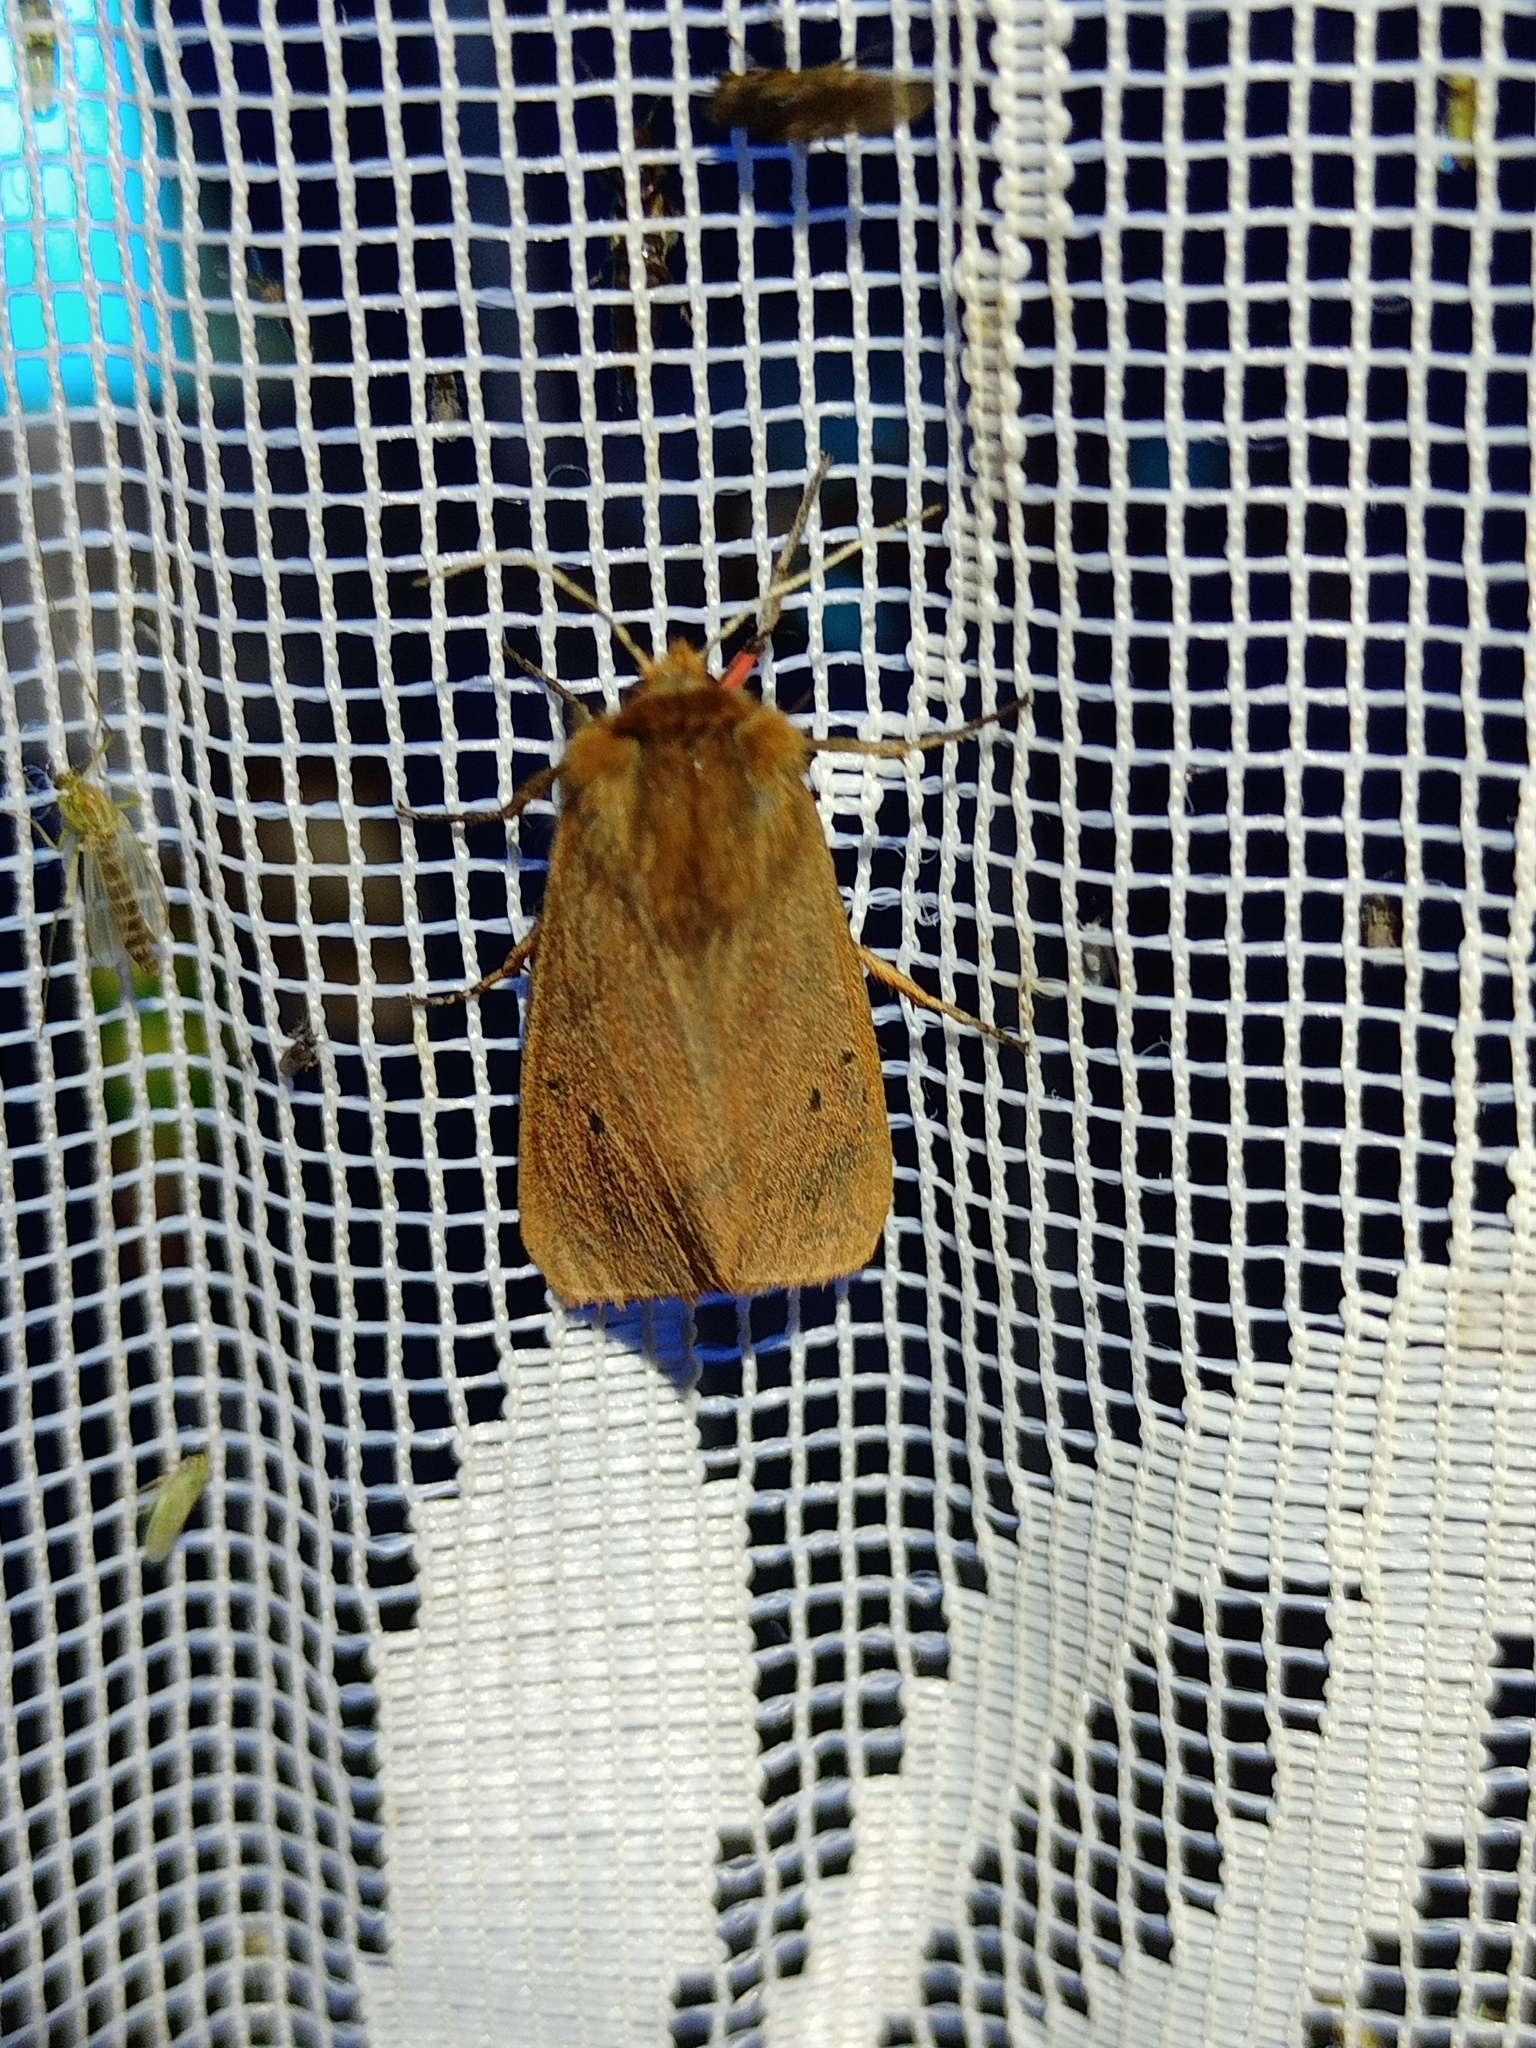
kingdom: Animalia
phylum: Arthropoda
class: Insecta
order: Lepidoptera
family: Erebidae
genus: Phragmatobia
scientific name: Phragmatobia fuliginosa
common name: Ruby tiger
